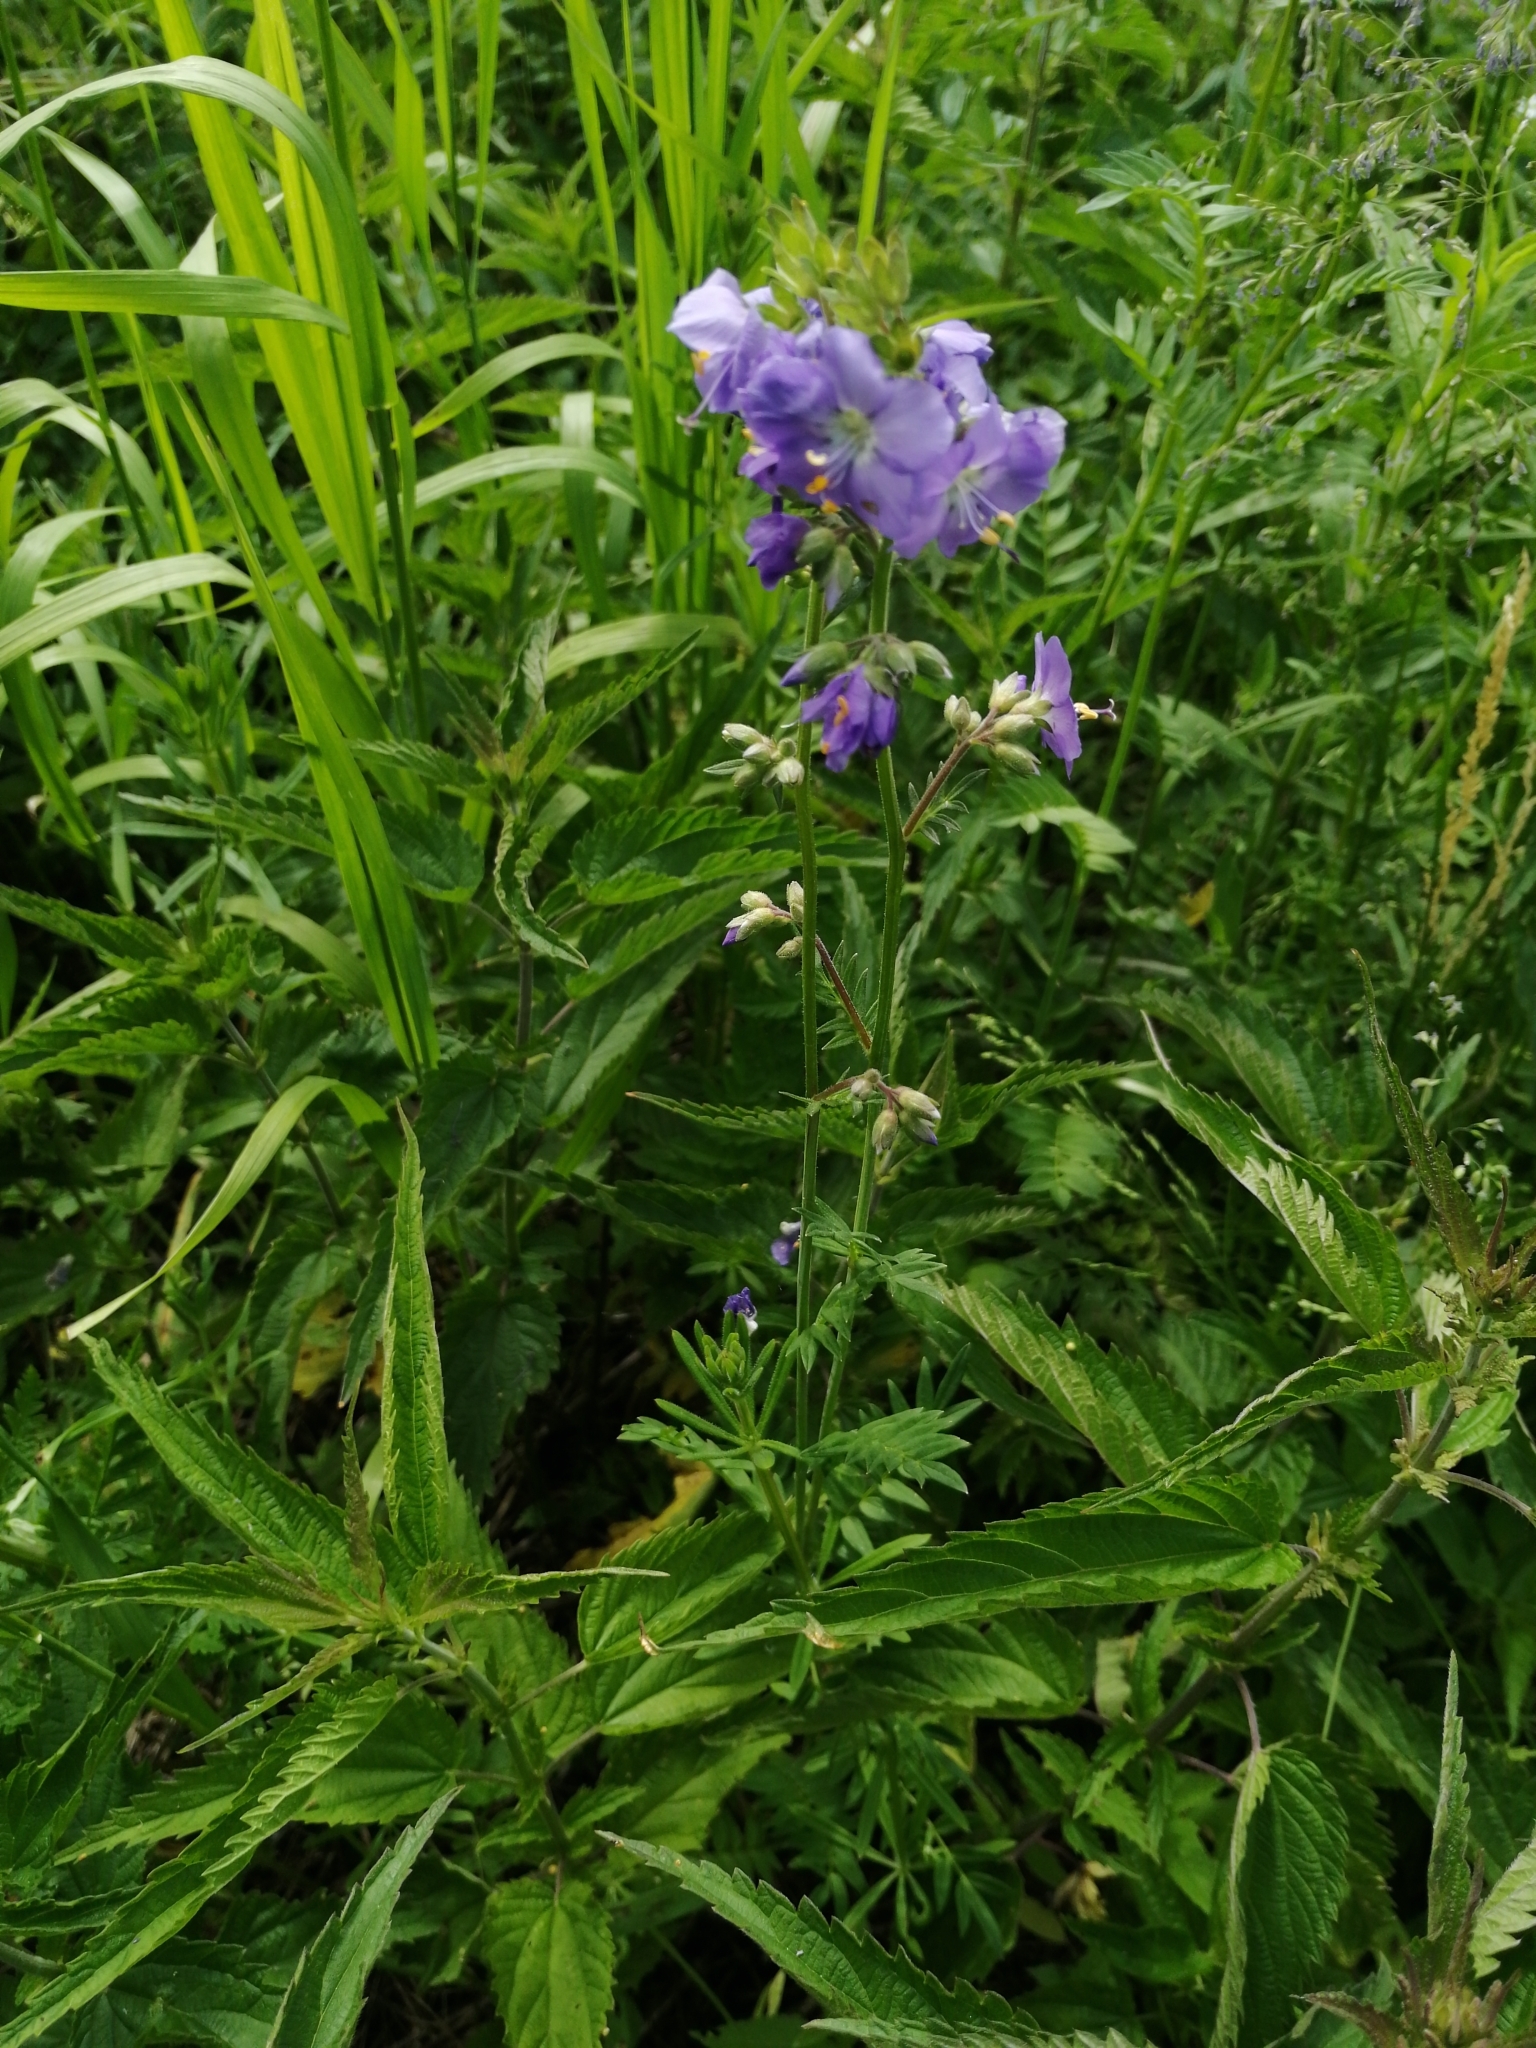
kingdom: Plantae
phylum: Tracheophyta
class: Magnoliopsida
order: Ericales
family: Polemoniaceae
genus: Polemonium
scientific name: Polemonium caeruleum
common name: Jacob's-ladder
